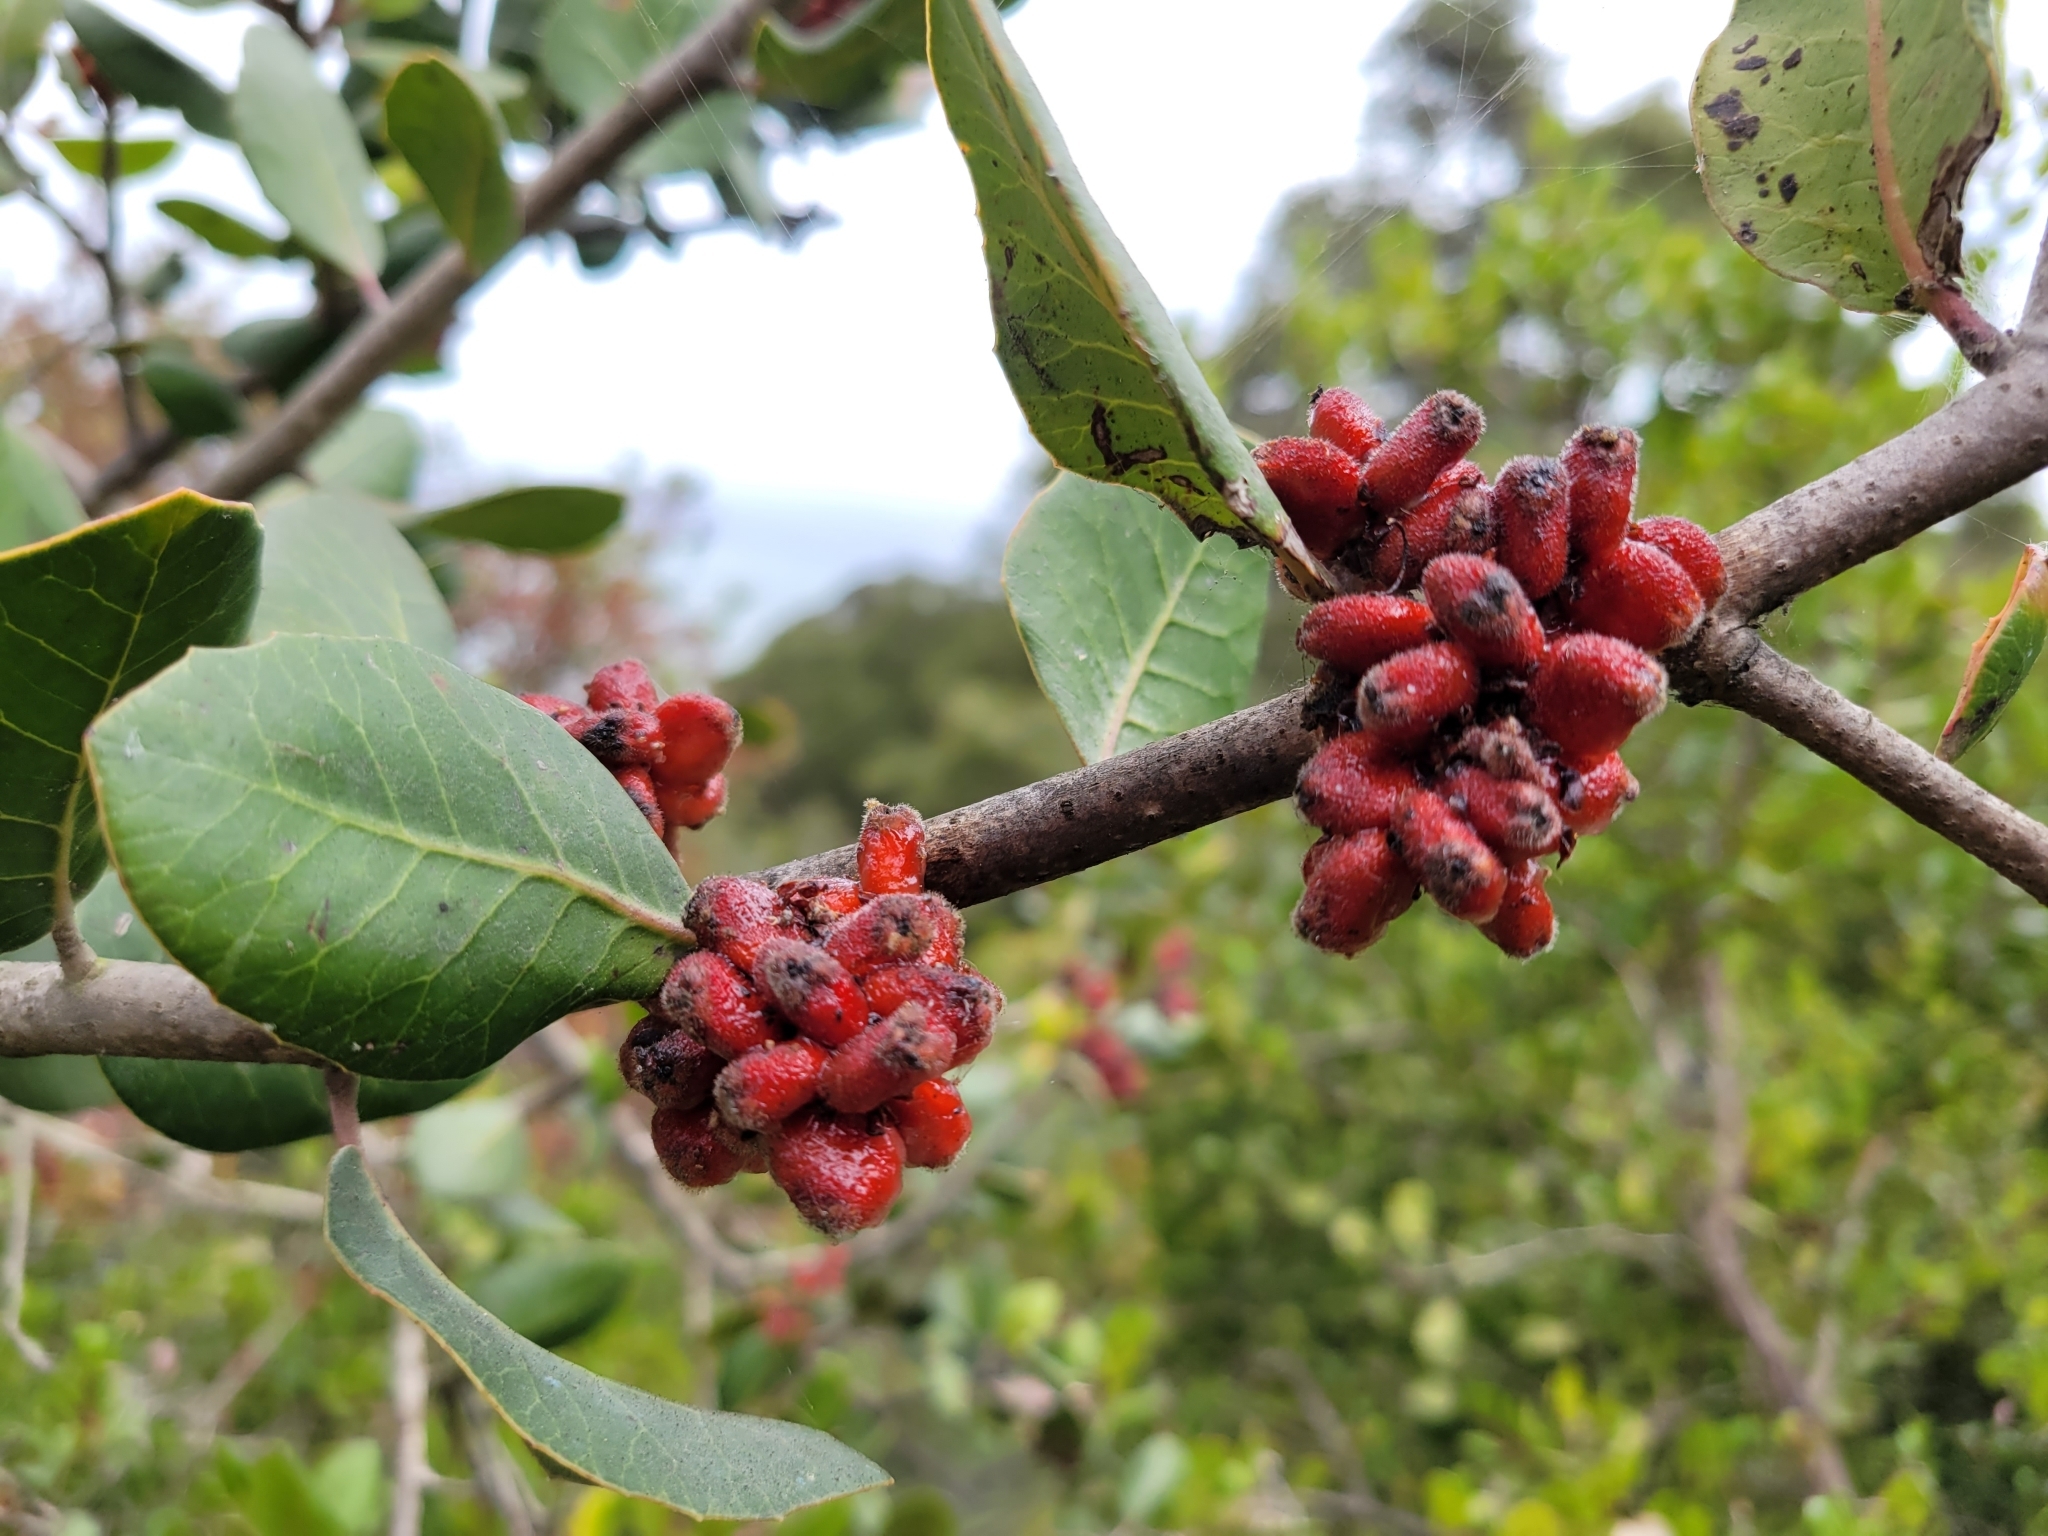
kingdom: Plantae
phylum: Tracheophyta
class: Magnoliopsida
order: Sapindales
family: Anacardiaceae
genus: Rhus
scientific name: Rhus integrifolia
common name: Lemonade sumac
